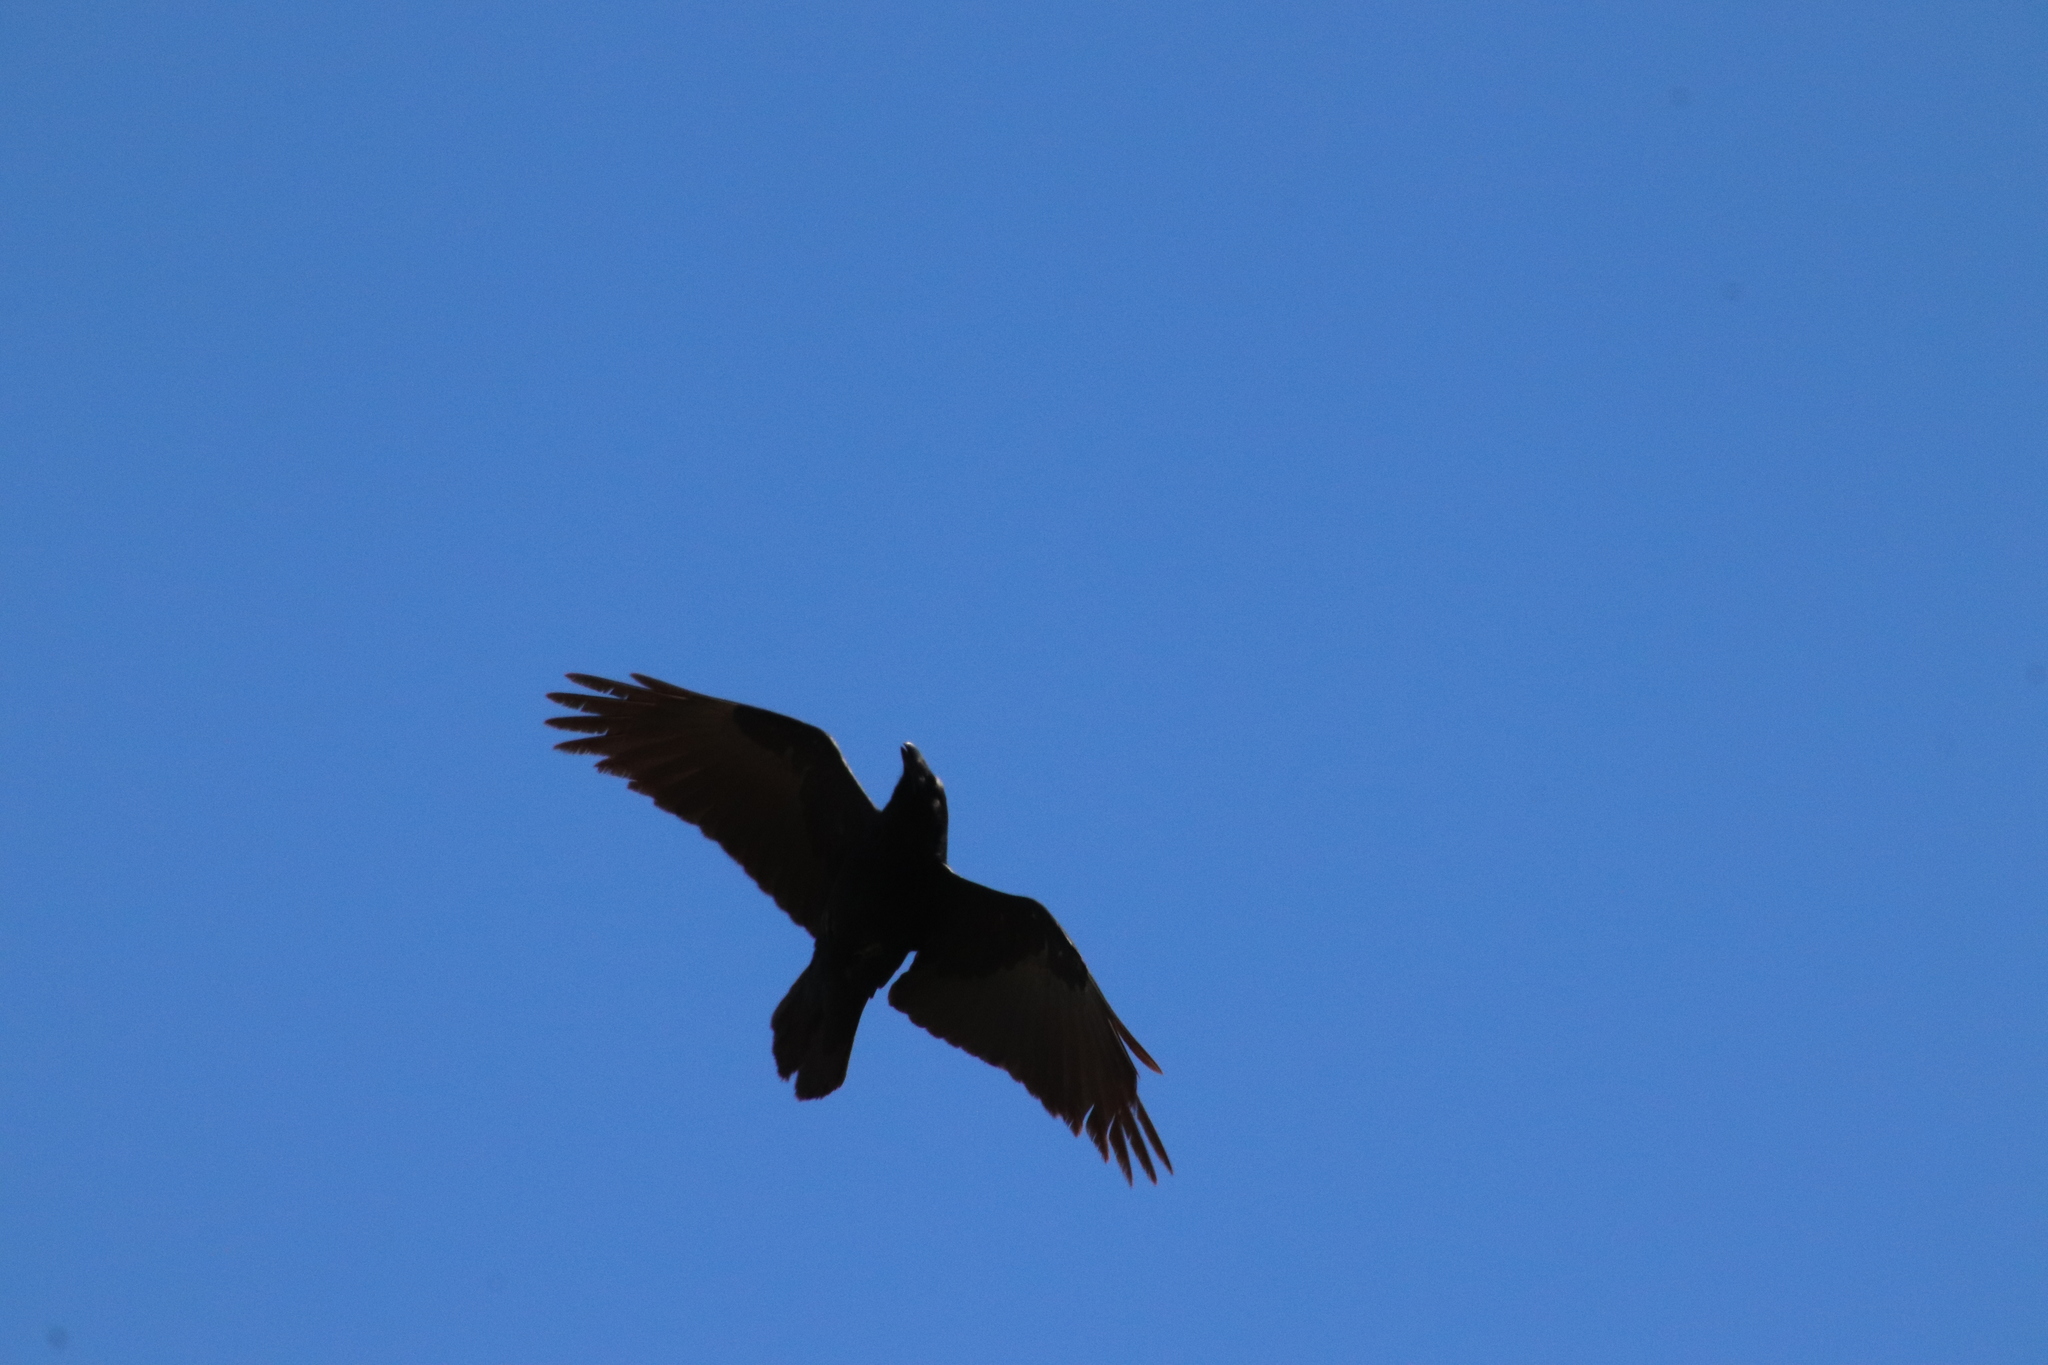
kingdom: Animalia
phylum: Chordata
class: Aves
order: Passeriformes
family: Corvidae
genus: Corvus
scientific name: Corvus corax
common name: Common raven
